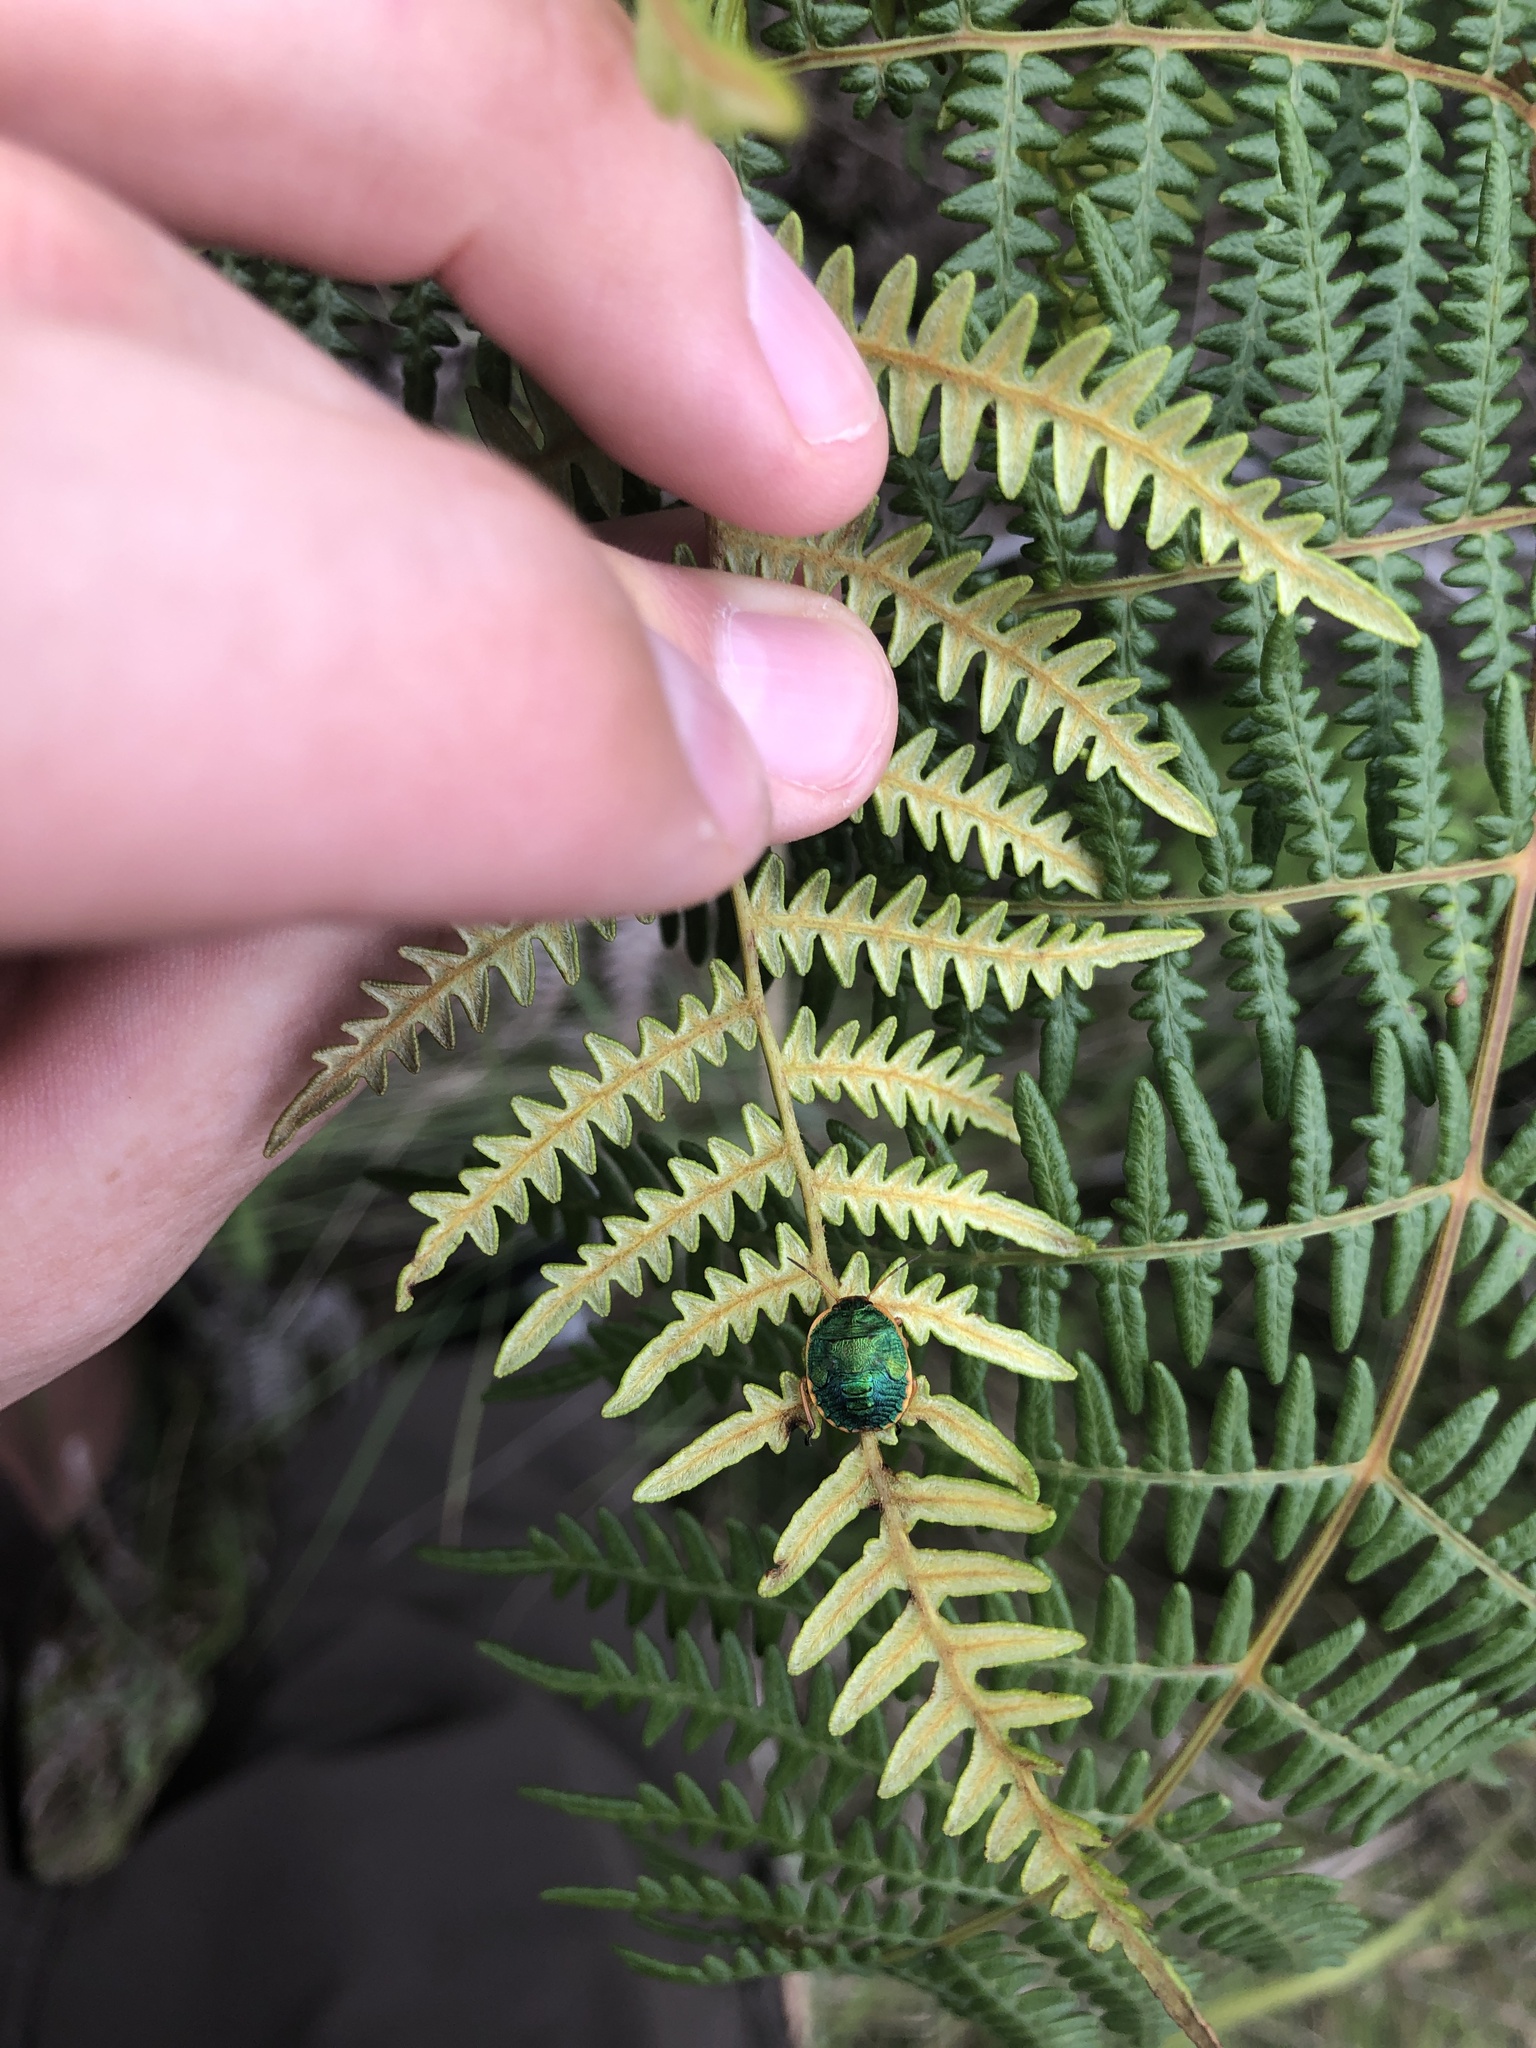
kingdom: Animalia
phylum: Arthropoda
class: Insecta
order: Hemiptera
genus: Erachtheus
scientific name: Erachtheus
